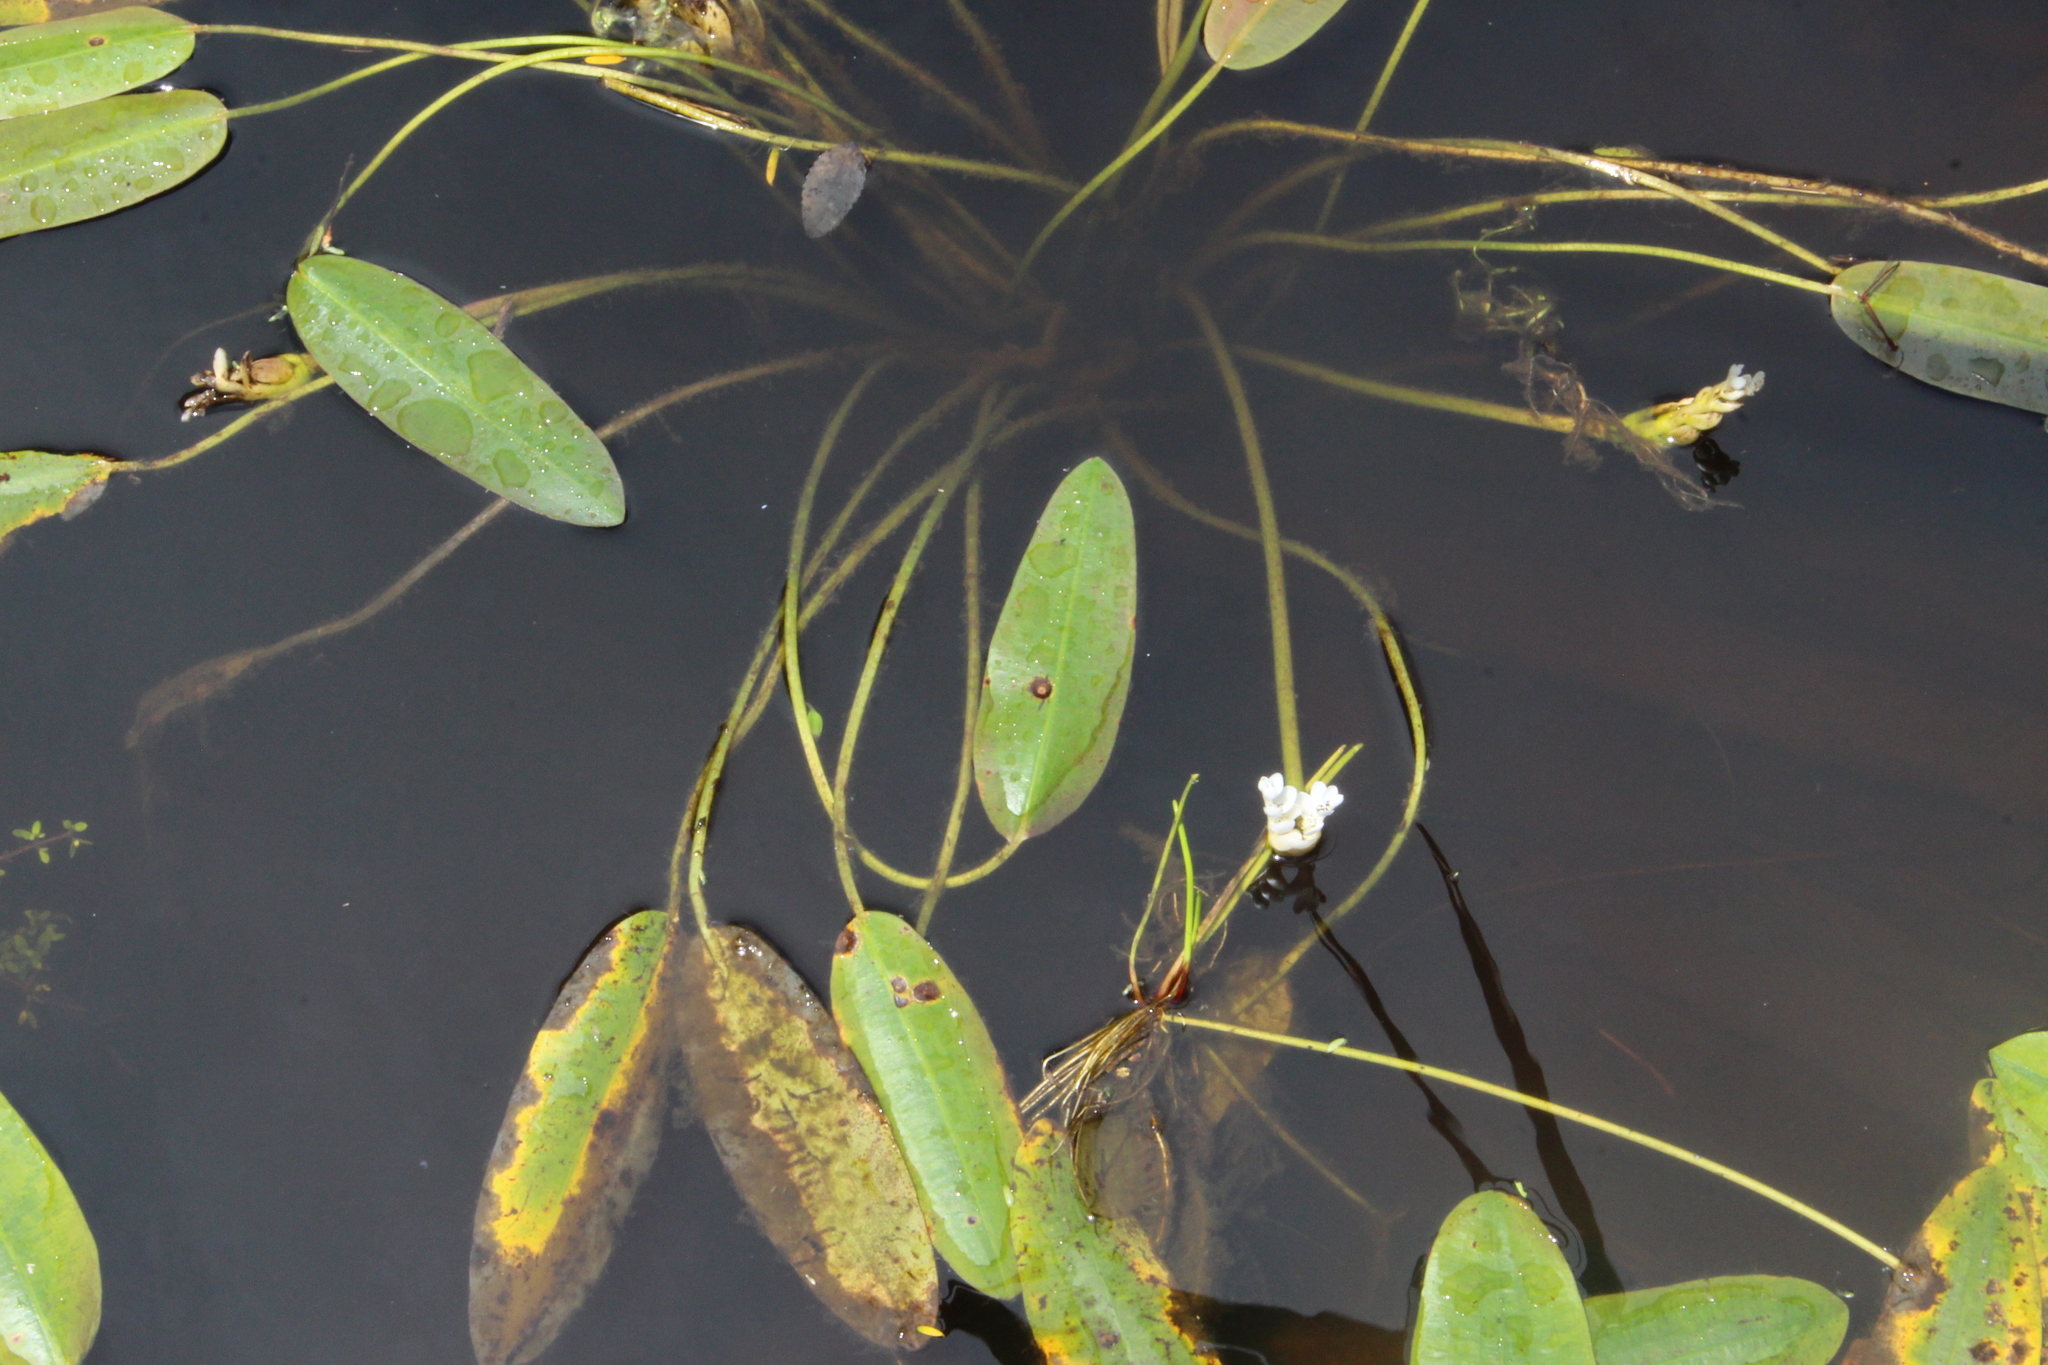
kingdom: Plantae
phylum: Tracheophyta
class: Liliopsida
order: Alismatales
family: Aponogetonaceae
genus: Aponogeton
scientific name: Aponogeton distachyos
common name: Cape-pondweed
